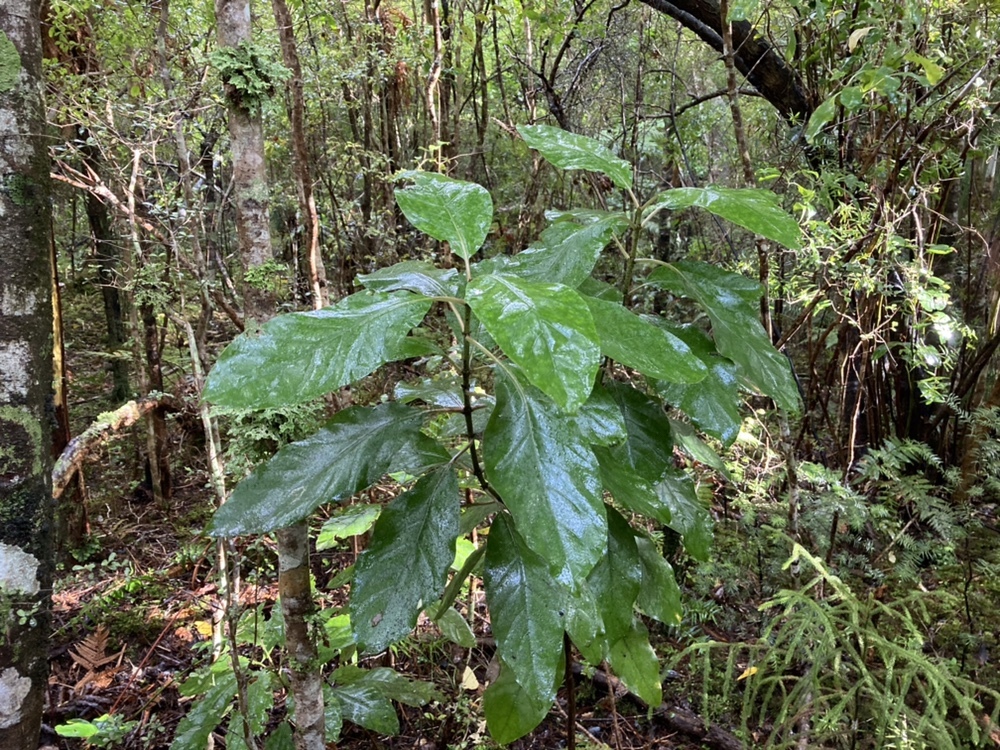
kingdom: Plantae
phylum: Tracheophyta
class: Magnoliopsida
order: Gentianales
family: Rubiaceae
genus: Coprosma
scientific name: Coprosma autumnalis
